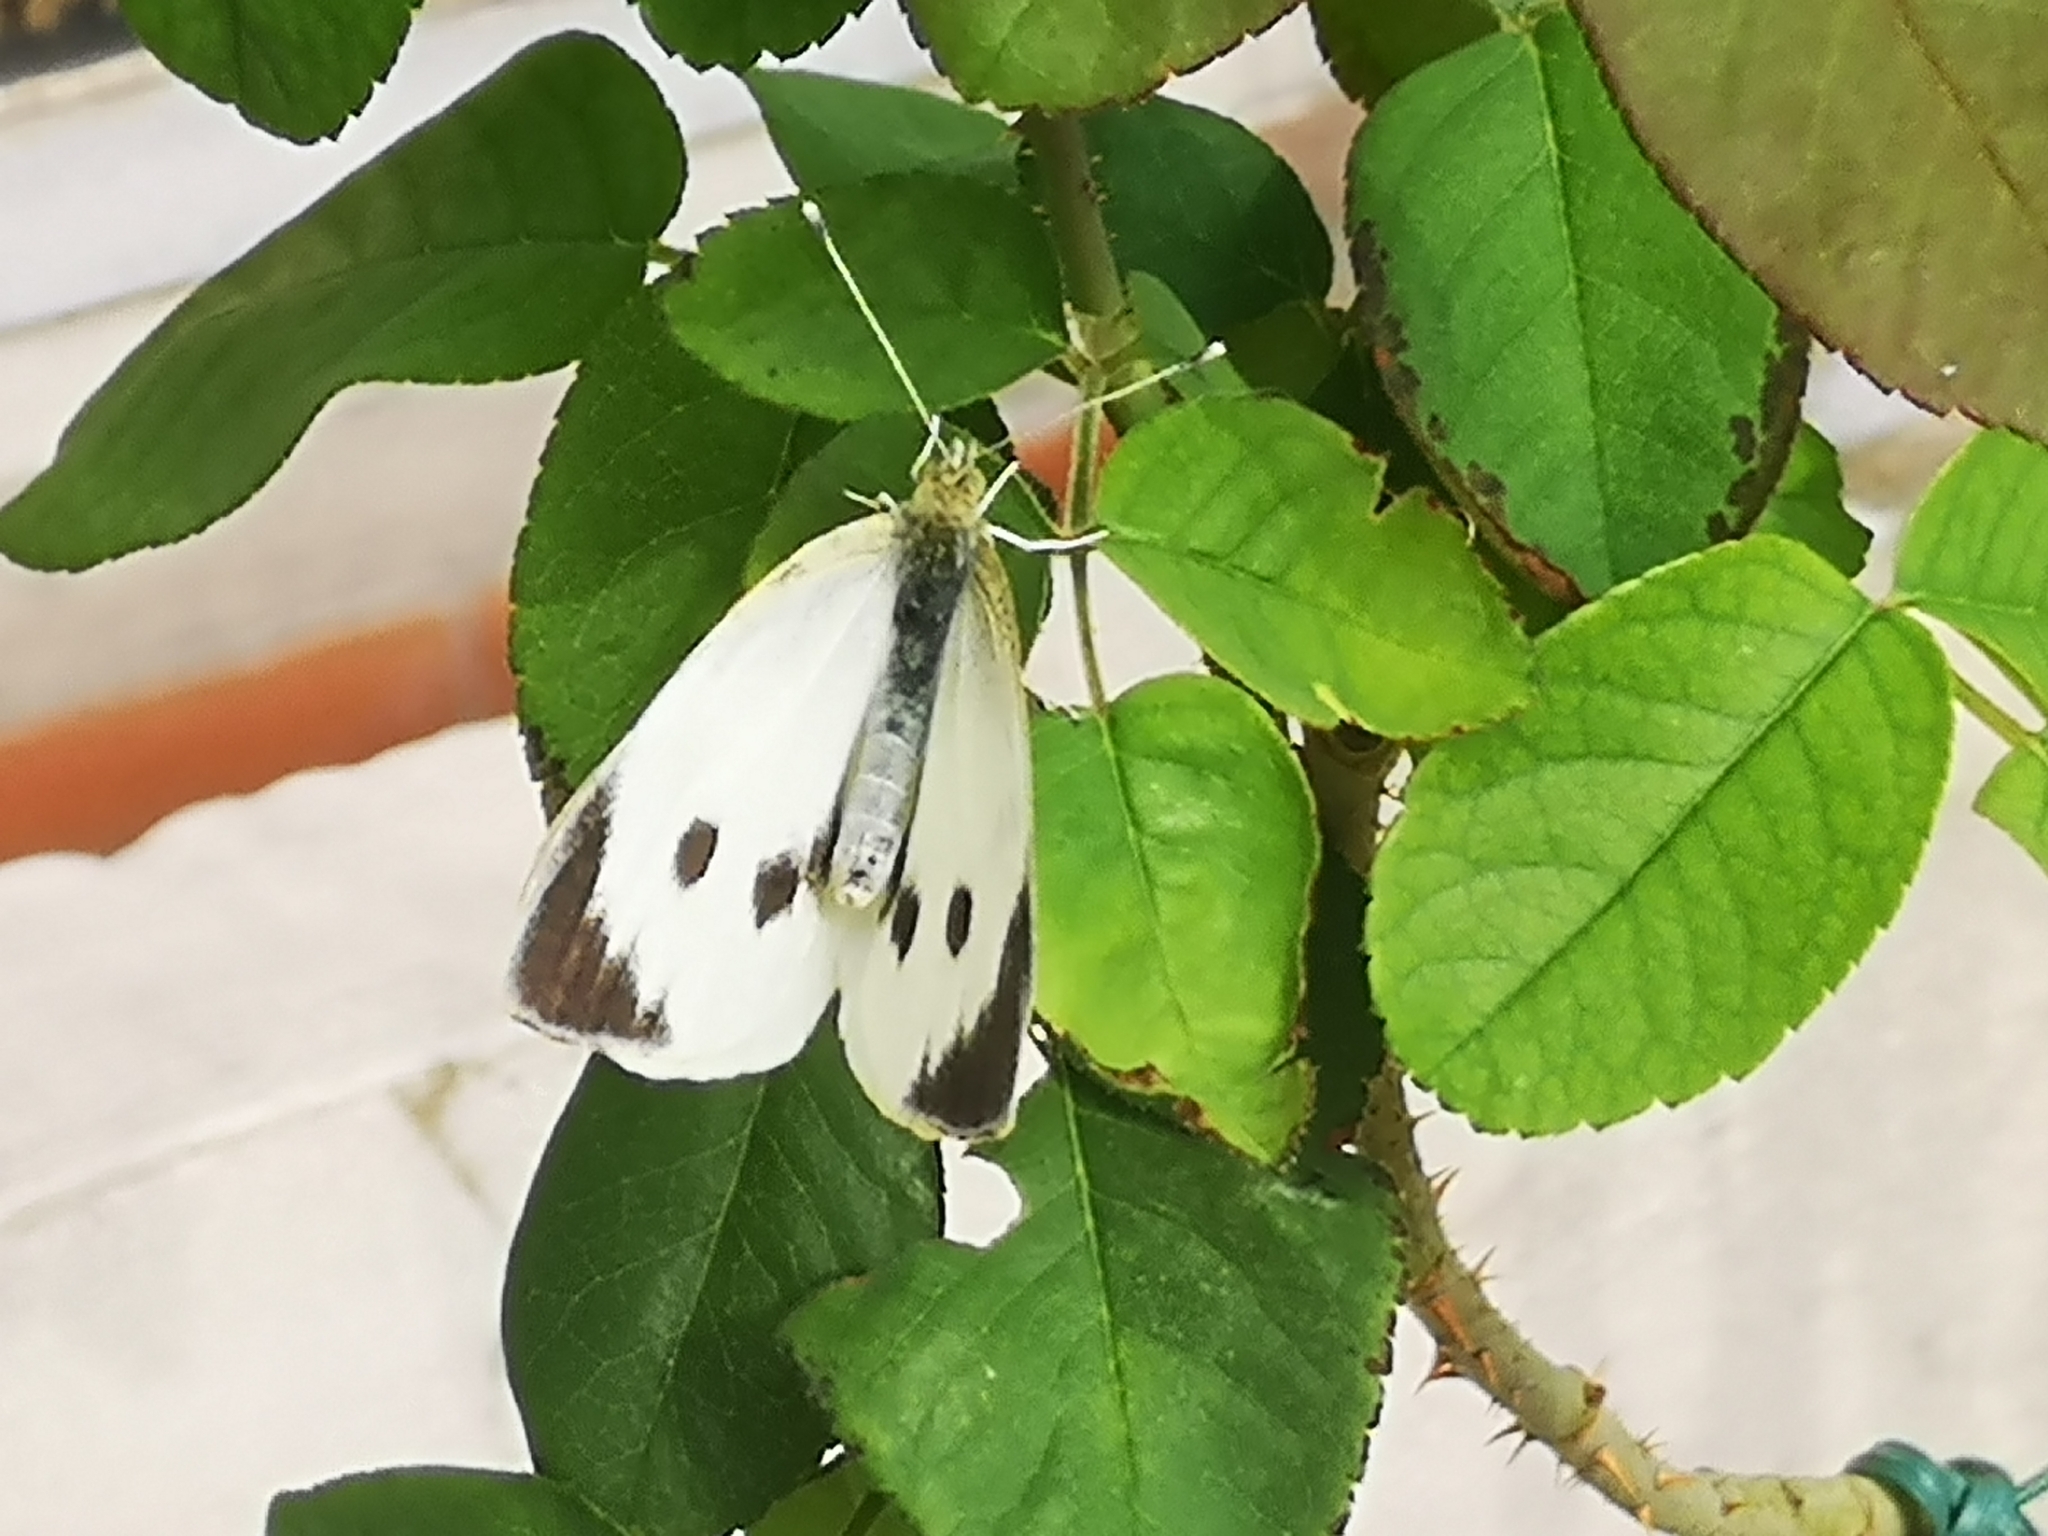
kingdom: Animalia
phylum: Arthropoda
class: Insecta
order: Lepidoptera
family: Pieridae
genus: Pieris
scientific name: Pieris brassicae
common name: Large white
